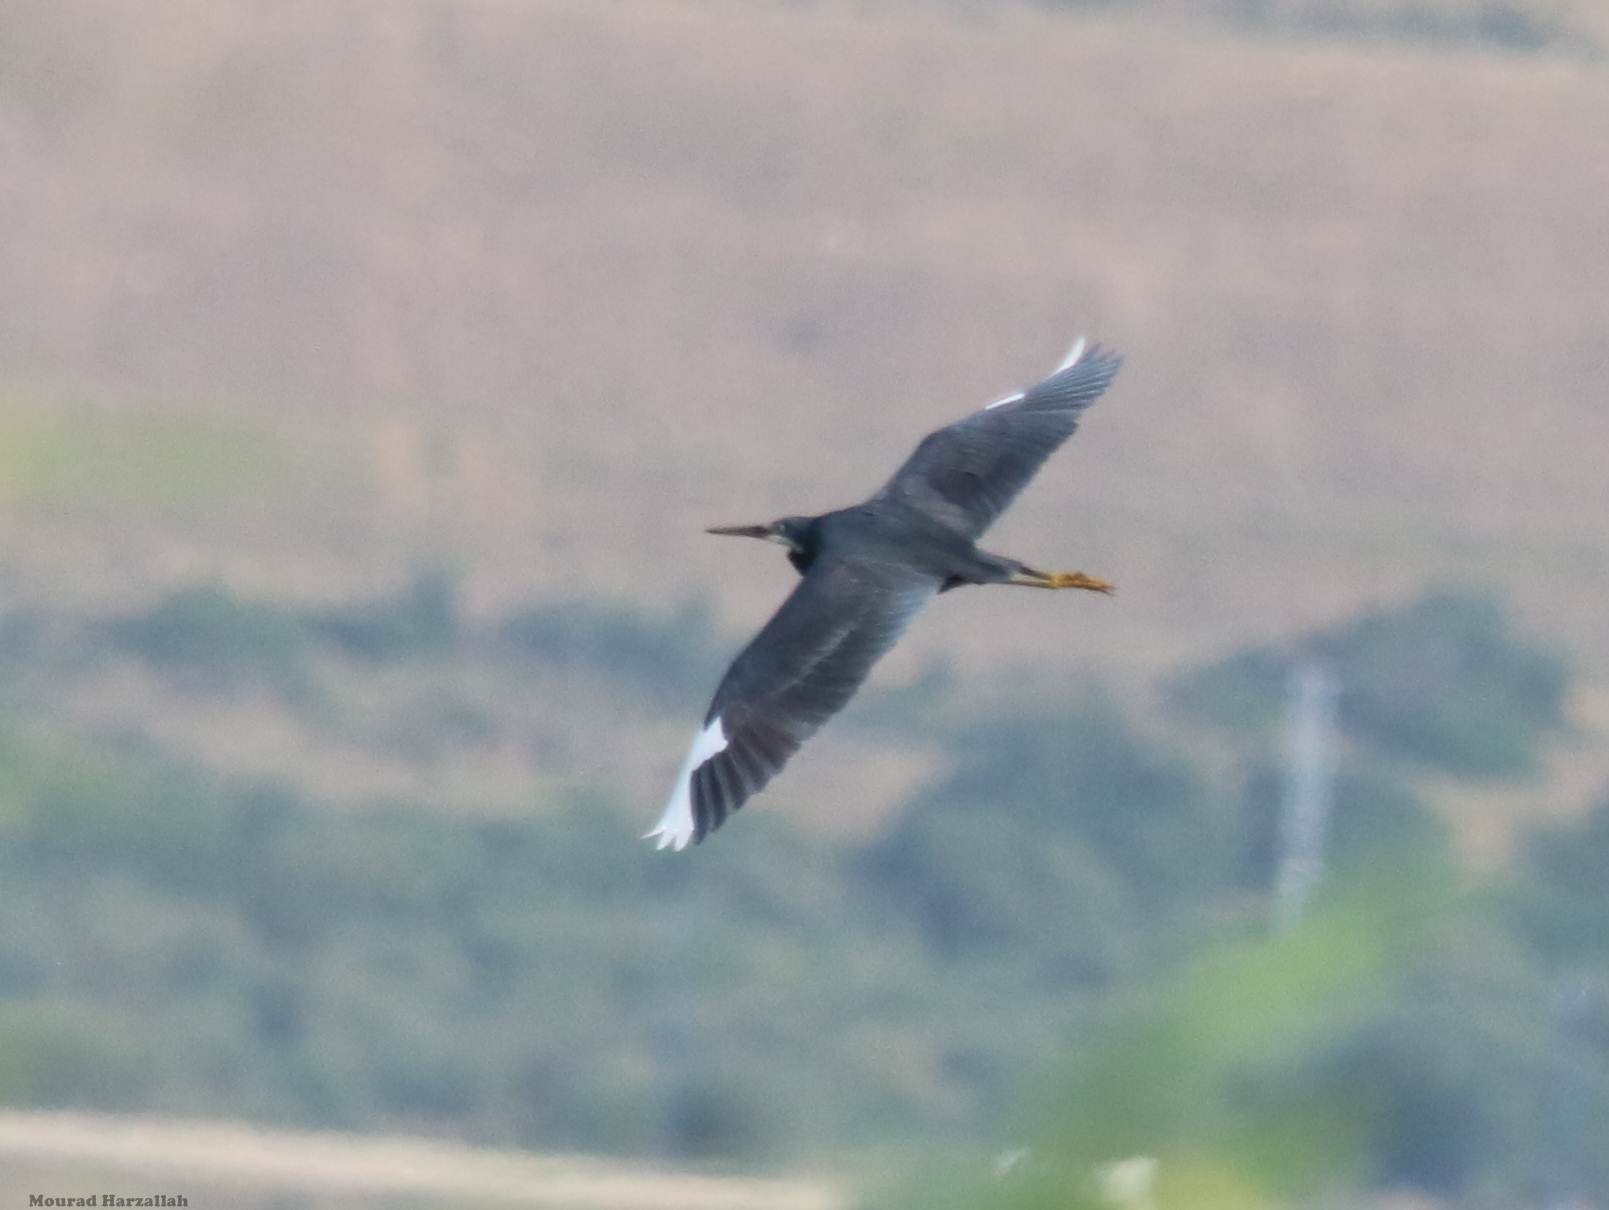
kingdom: Animalia
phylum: Chordata
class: Aves
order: Pelecaniformes
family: Ardeidae
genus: Egretta
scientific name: Egretta gularis
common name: Western reef-heron
